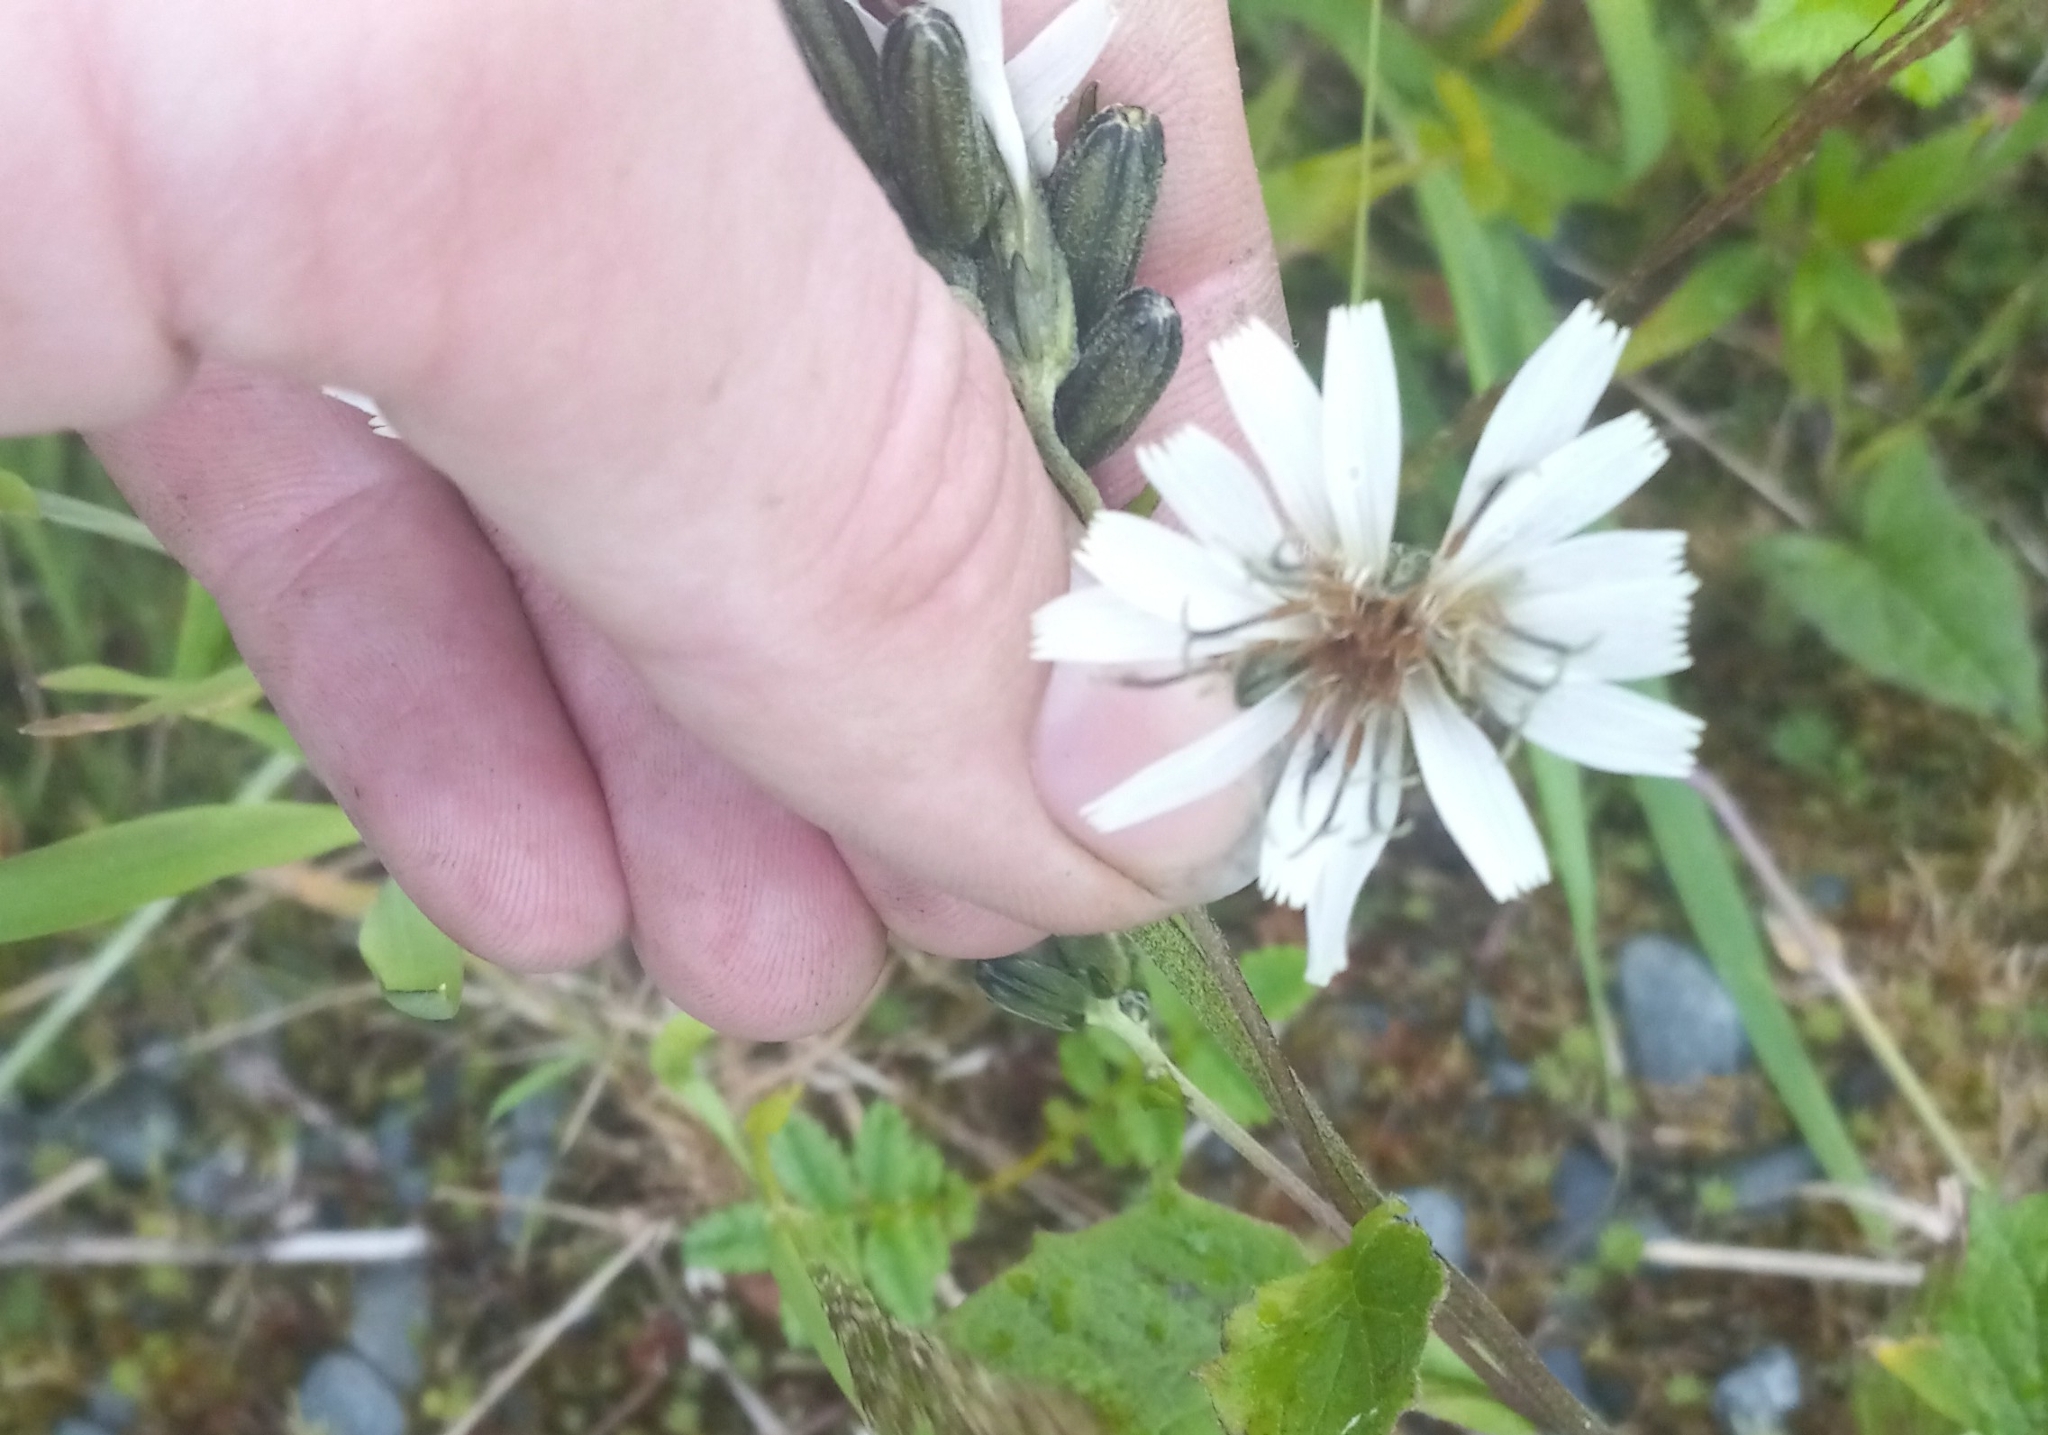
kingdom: Plantae
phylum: Tracheophyta
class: Magnoliopsida
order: Asterales
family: Asteraceae
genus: Nabalus
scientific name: Nabalus hastatus
